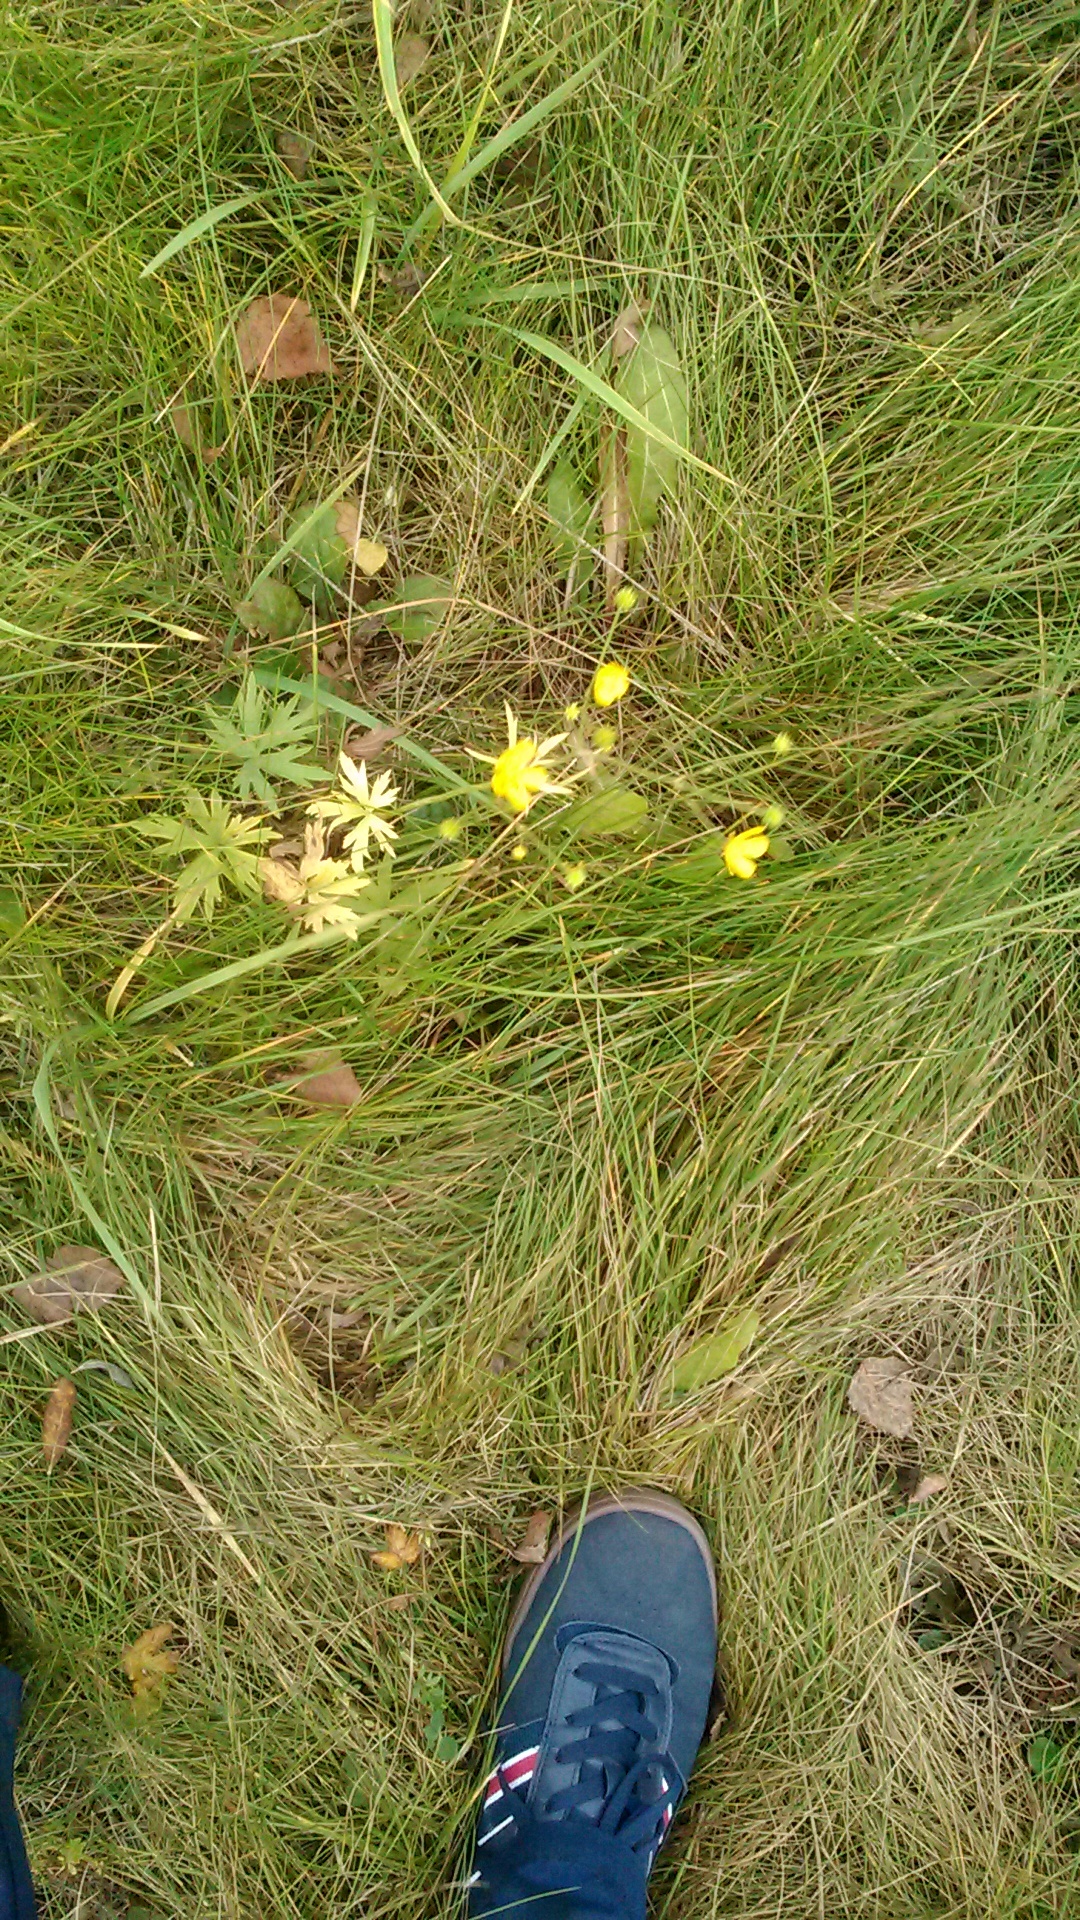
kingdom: Plantae
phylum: Tracheophyta
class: Magnoliopsida
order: Ranunculales
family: Ranunculaceae
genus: Ranunculus
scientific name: Ranunculus acris
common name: Meadow buttercup
